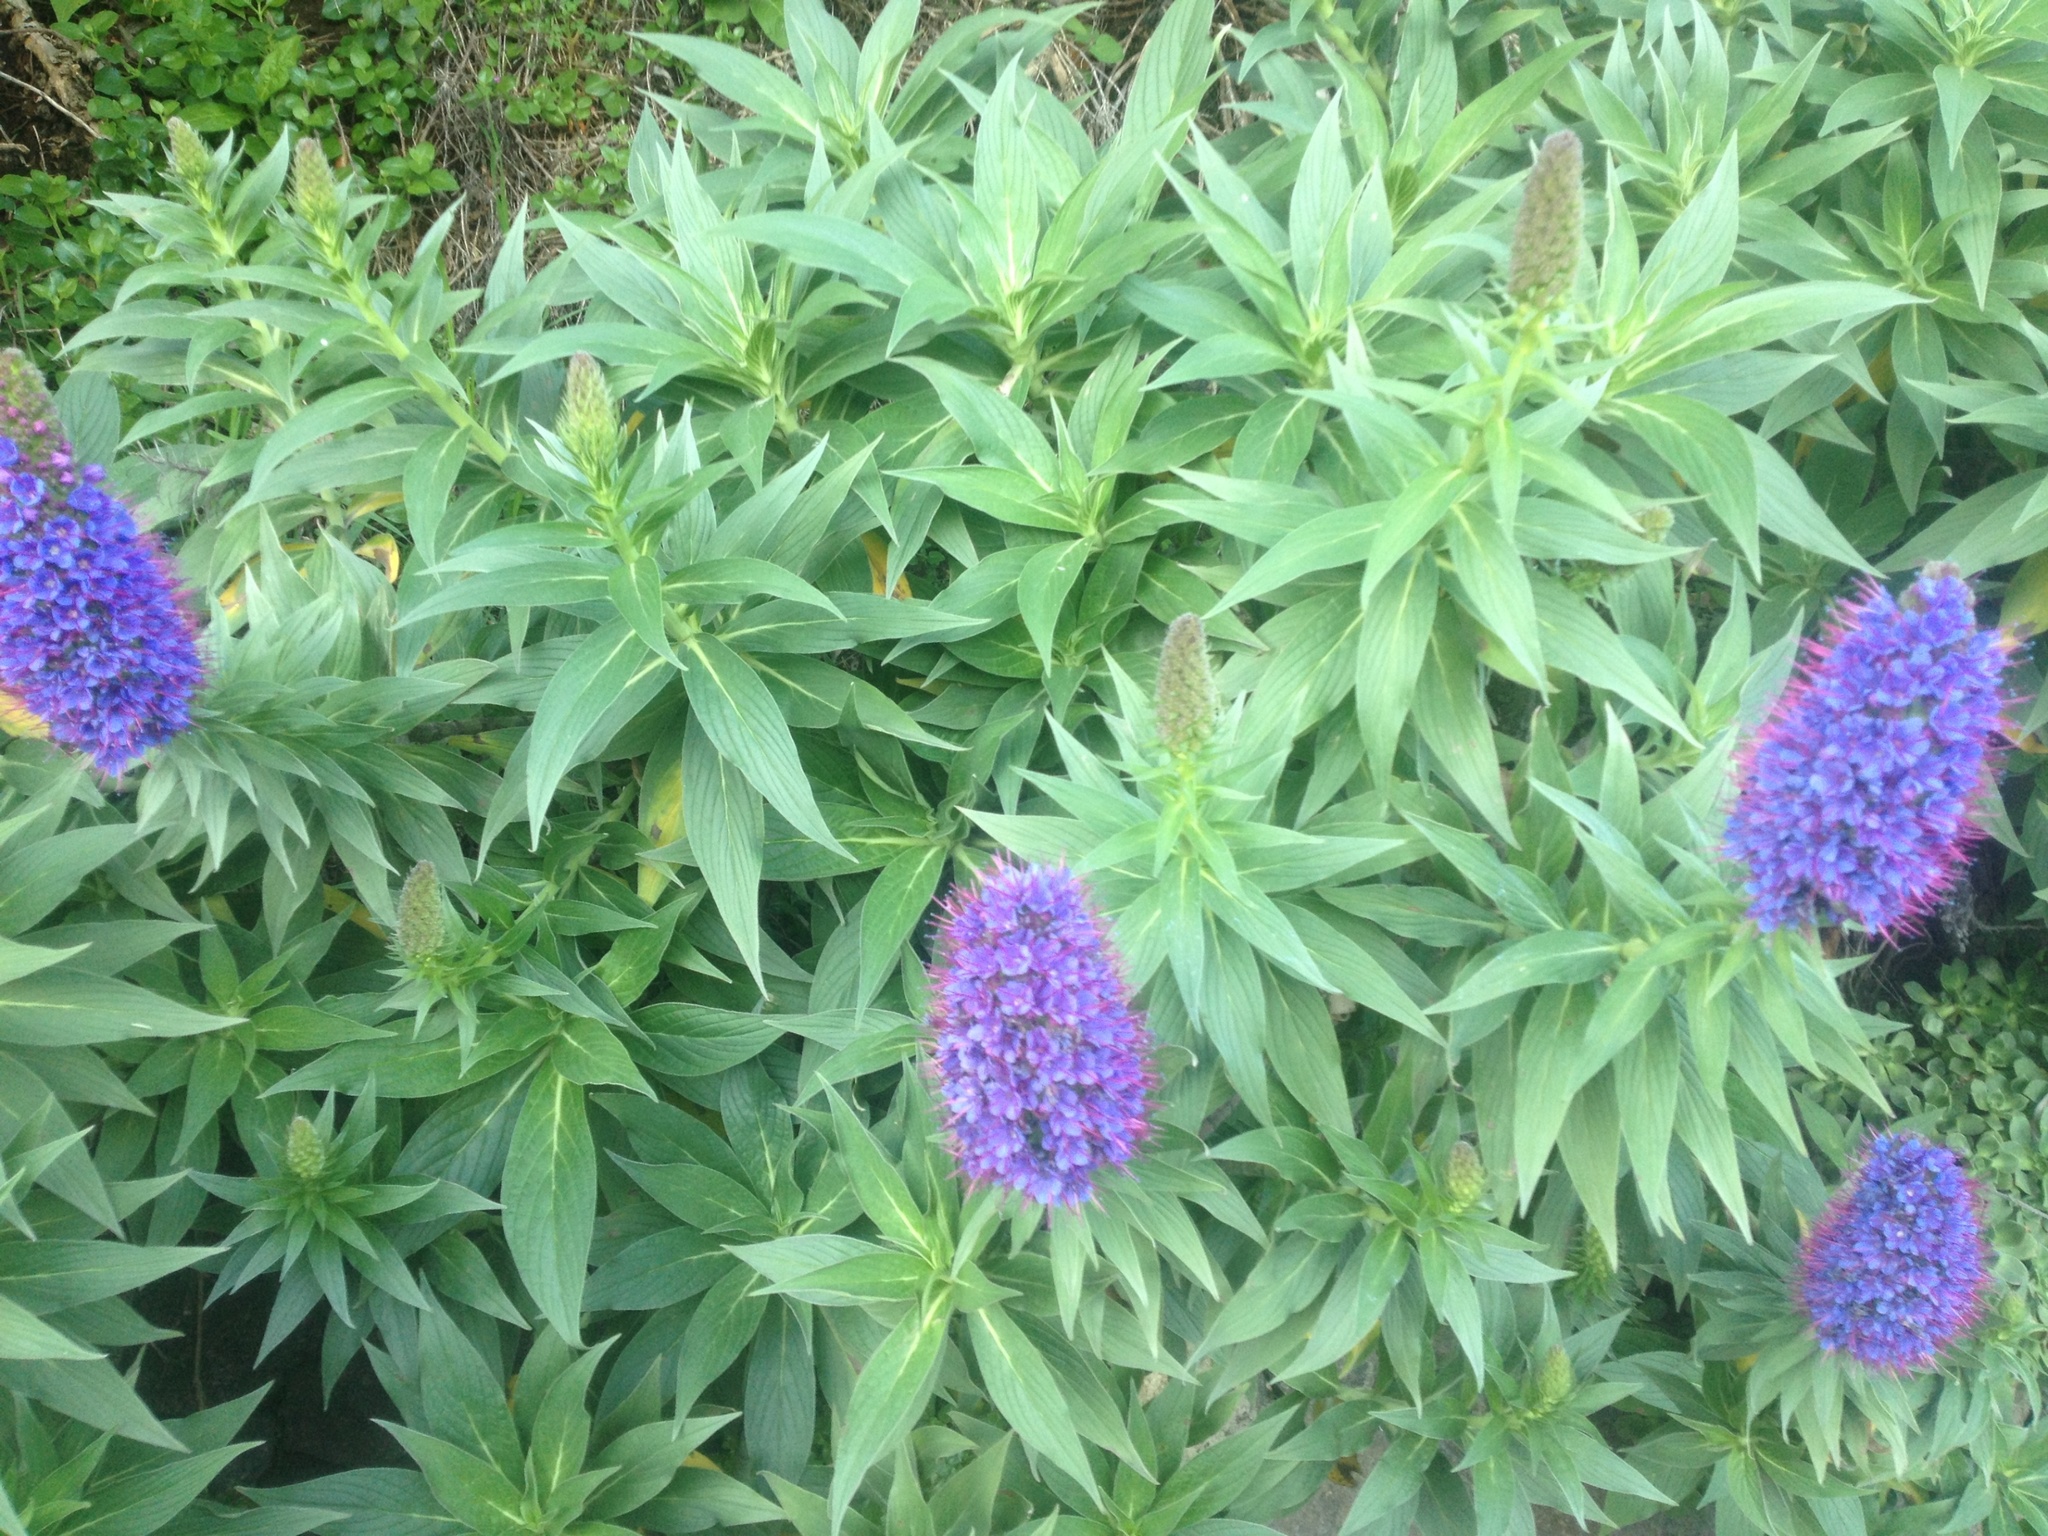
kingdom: Plantae
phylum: Tracheophyta
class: Magnoliopsida
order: Boraginales
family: Boraginaceae
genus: Echium
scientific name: Echium candicans
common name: Pride of madeira
